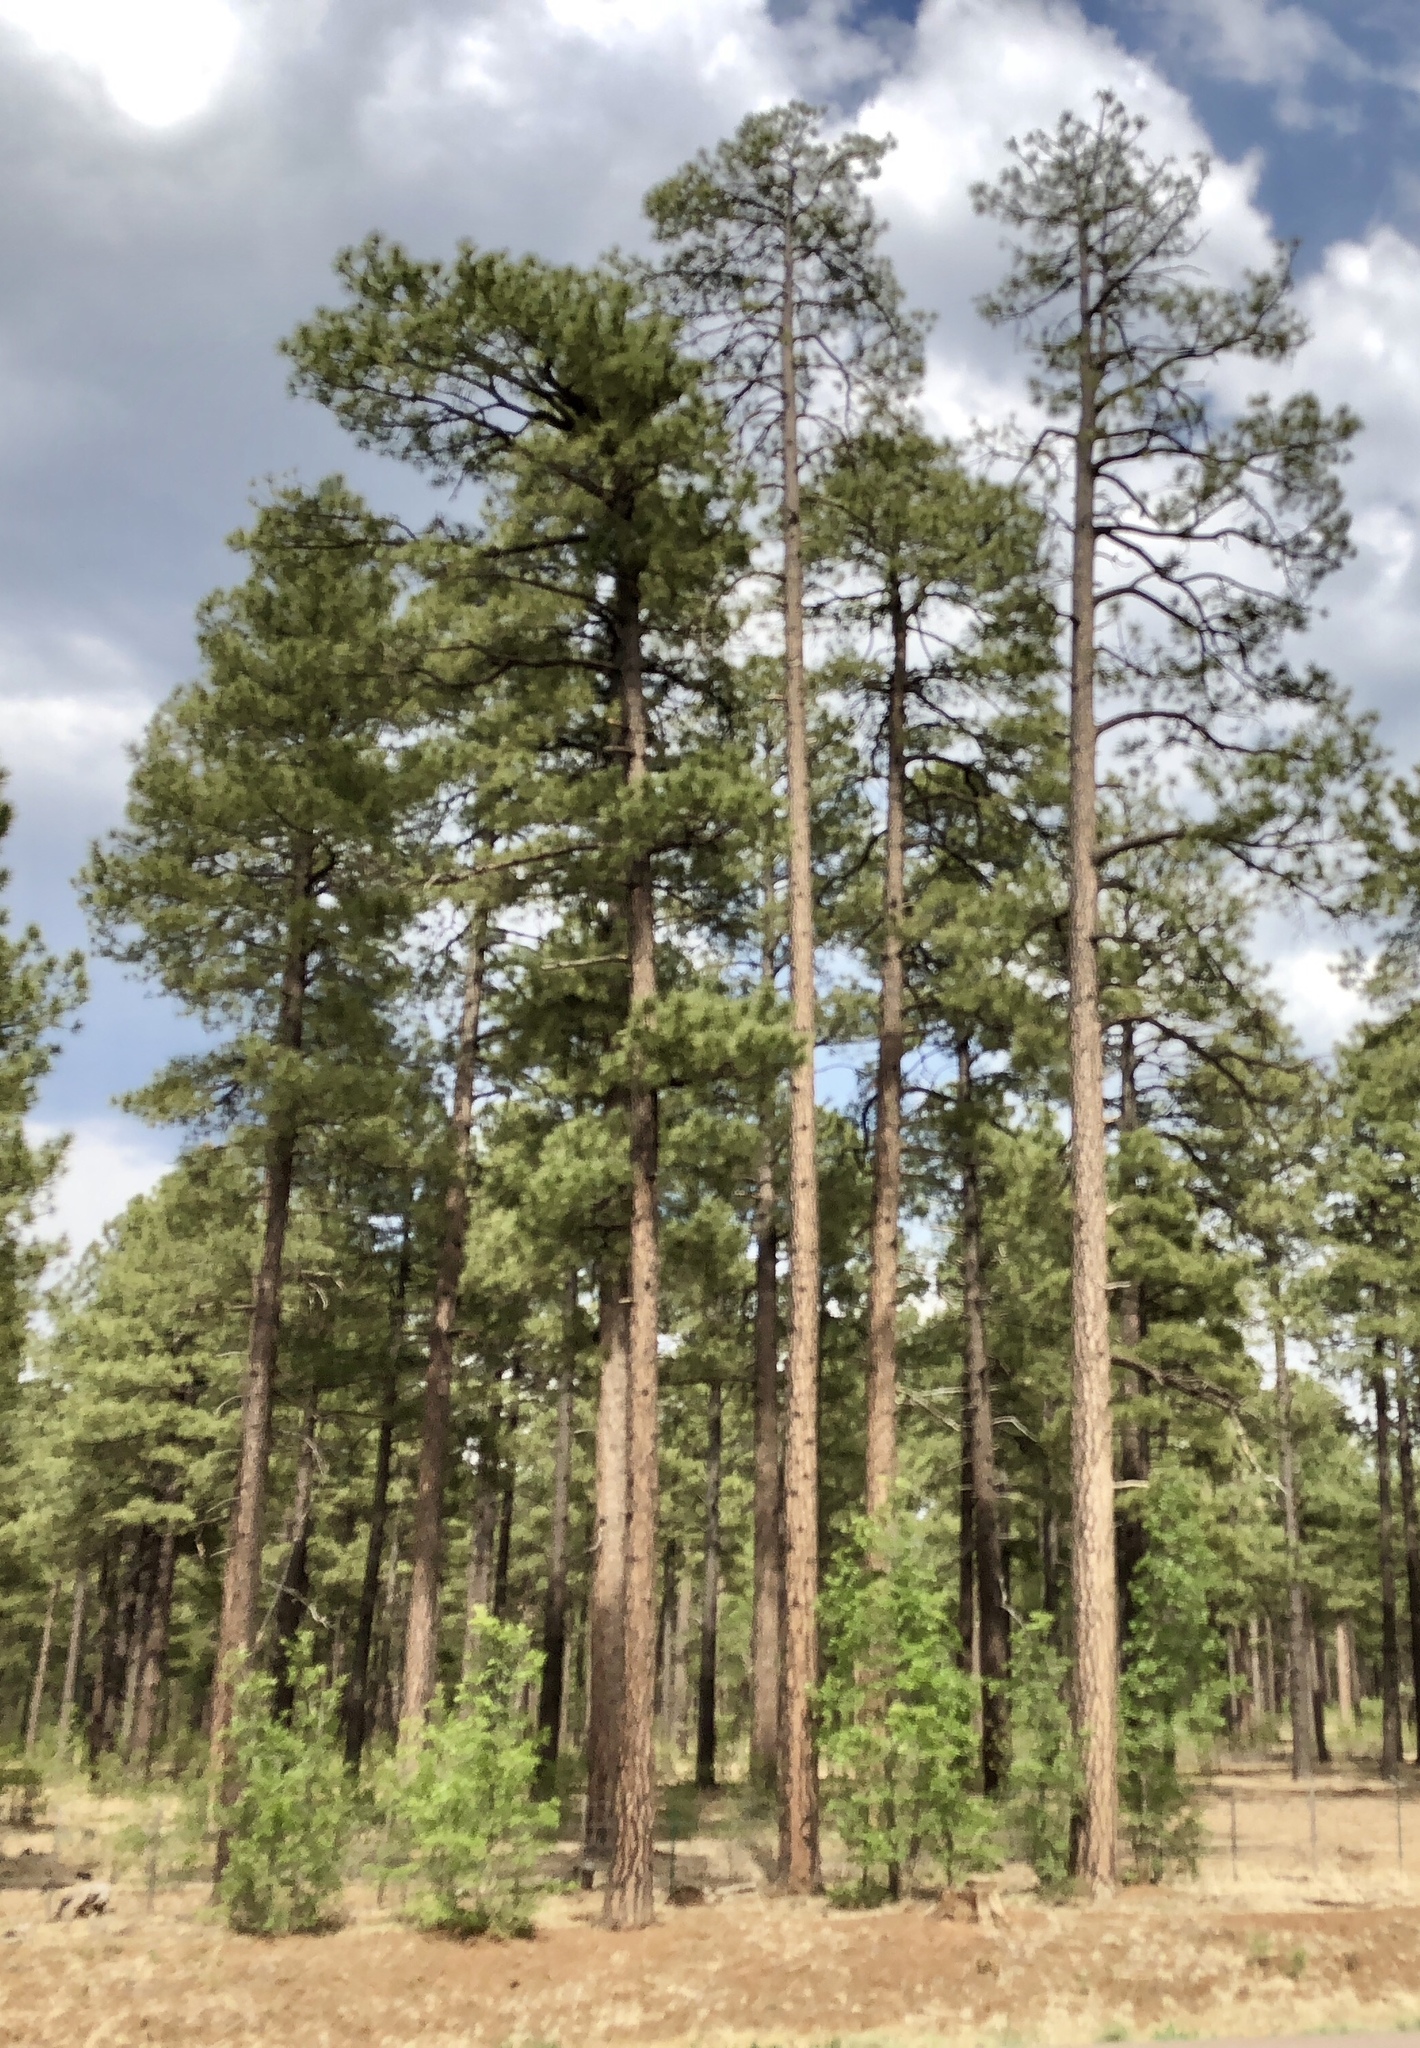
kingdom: Plantae
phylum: Tracheophyta
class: Pinopsida
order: Pinales
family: Pinaceae
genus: Pinus
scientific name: Pinus ponderosa
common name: Western yellow-pine
